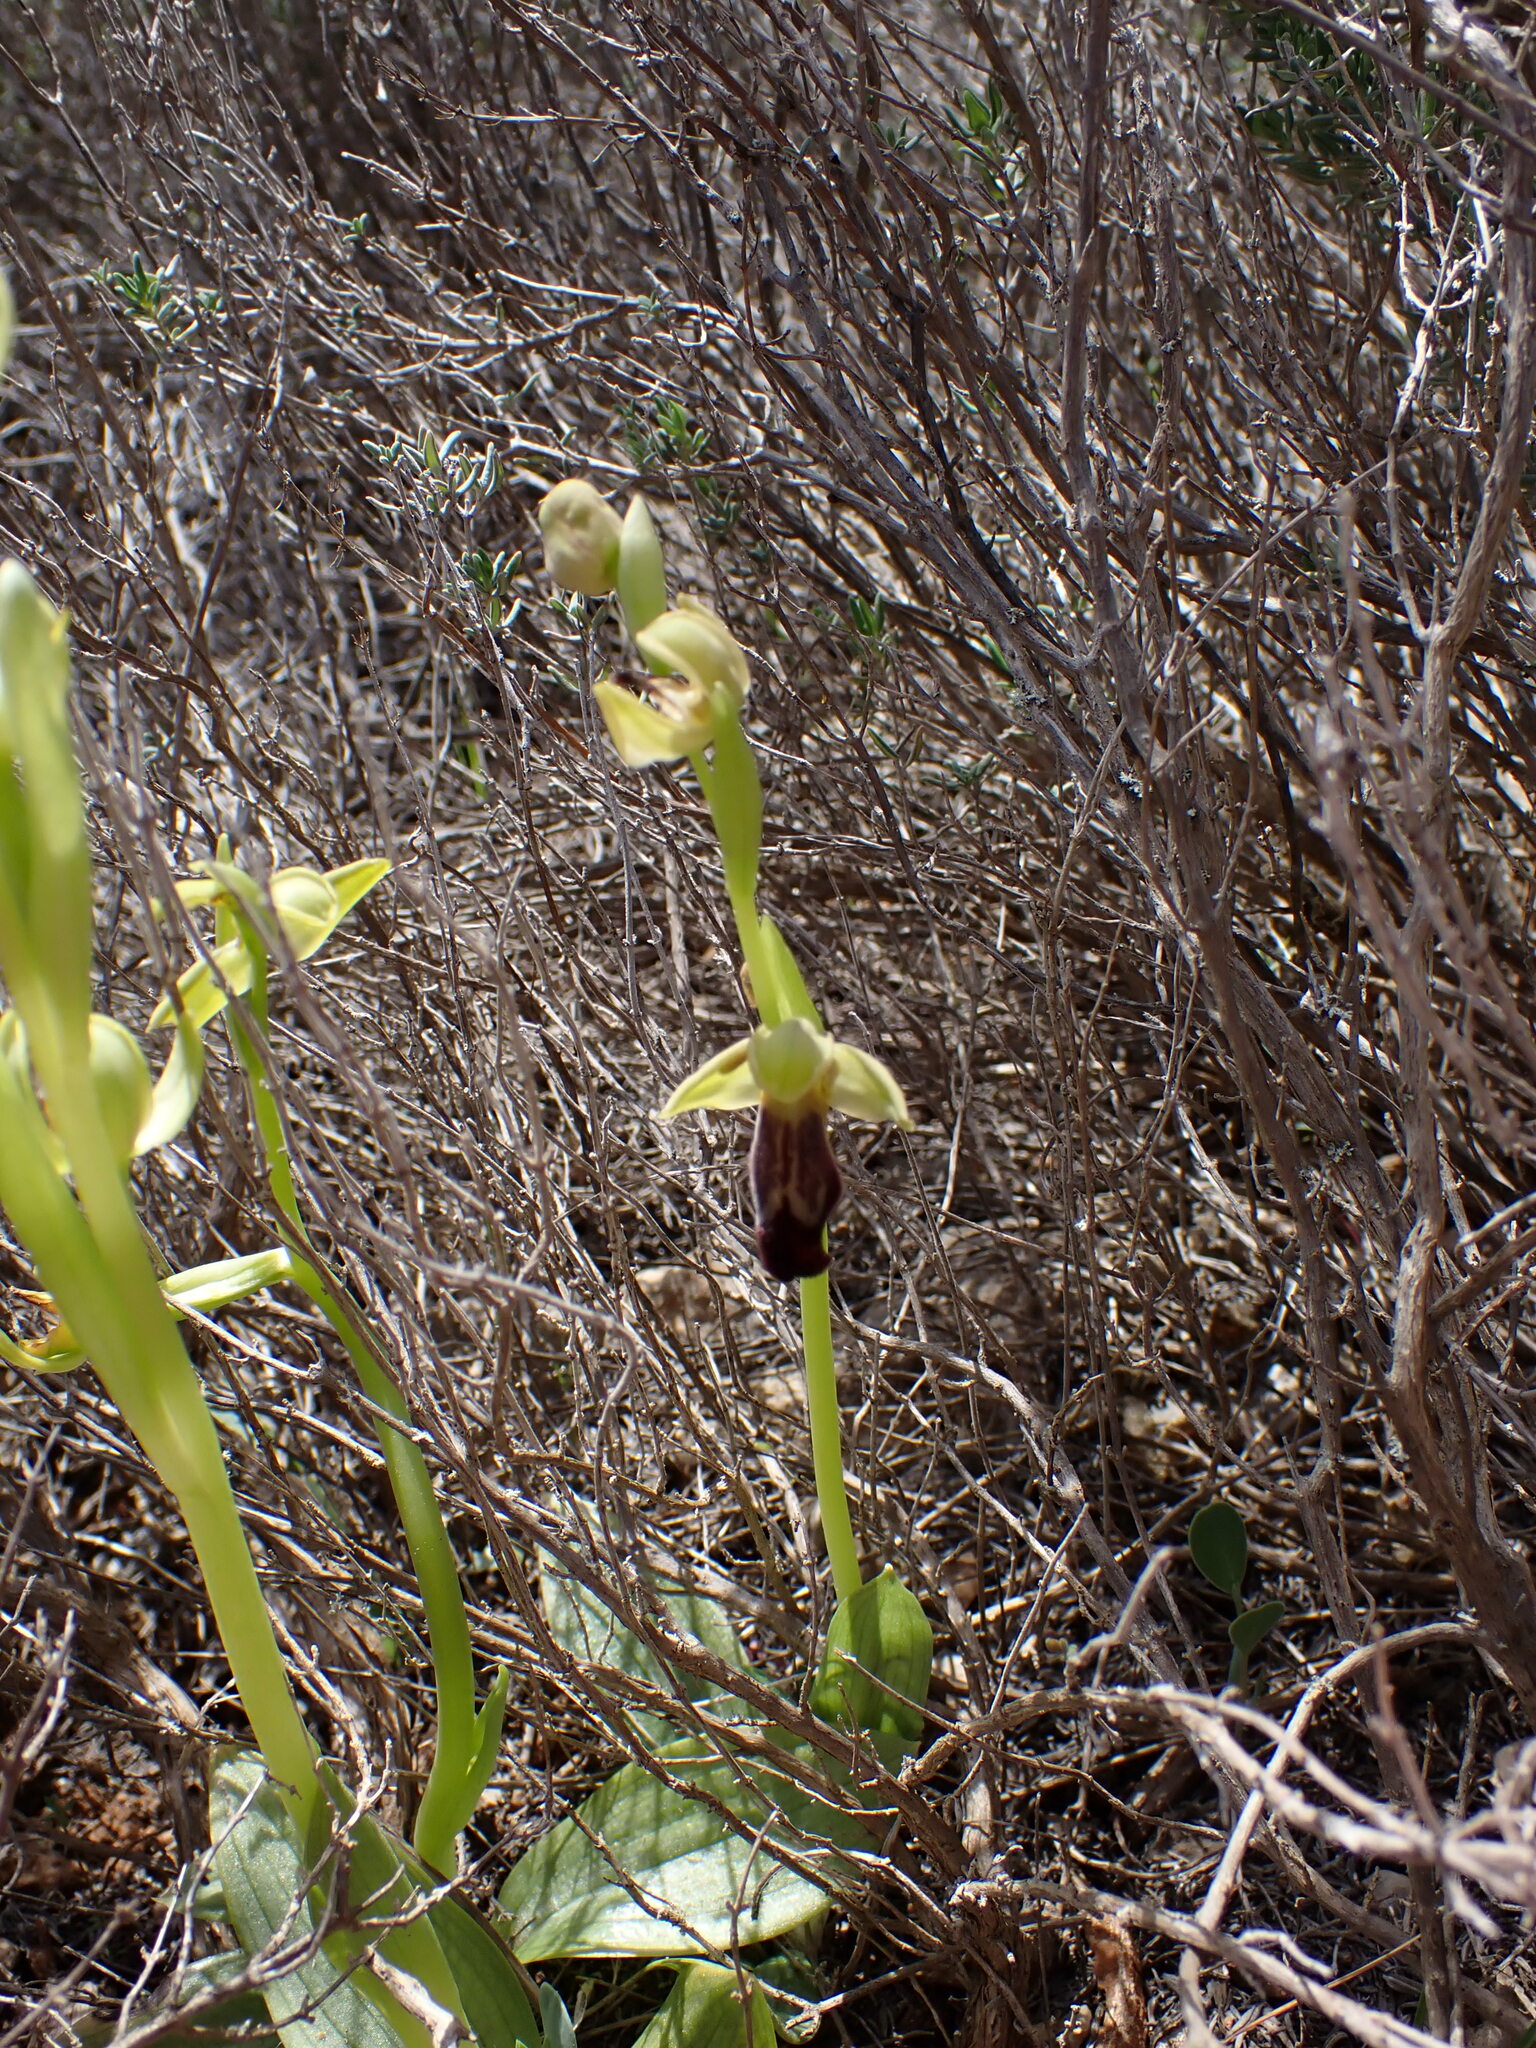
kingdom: Plantae
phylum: Tracheophyta
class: Liliopsida
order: Asparagales
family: Orchidaceae
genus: Ophrys
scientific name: Ophrys fusca
